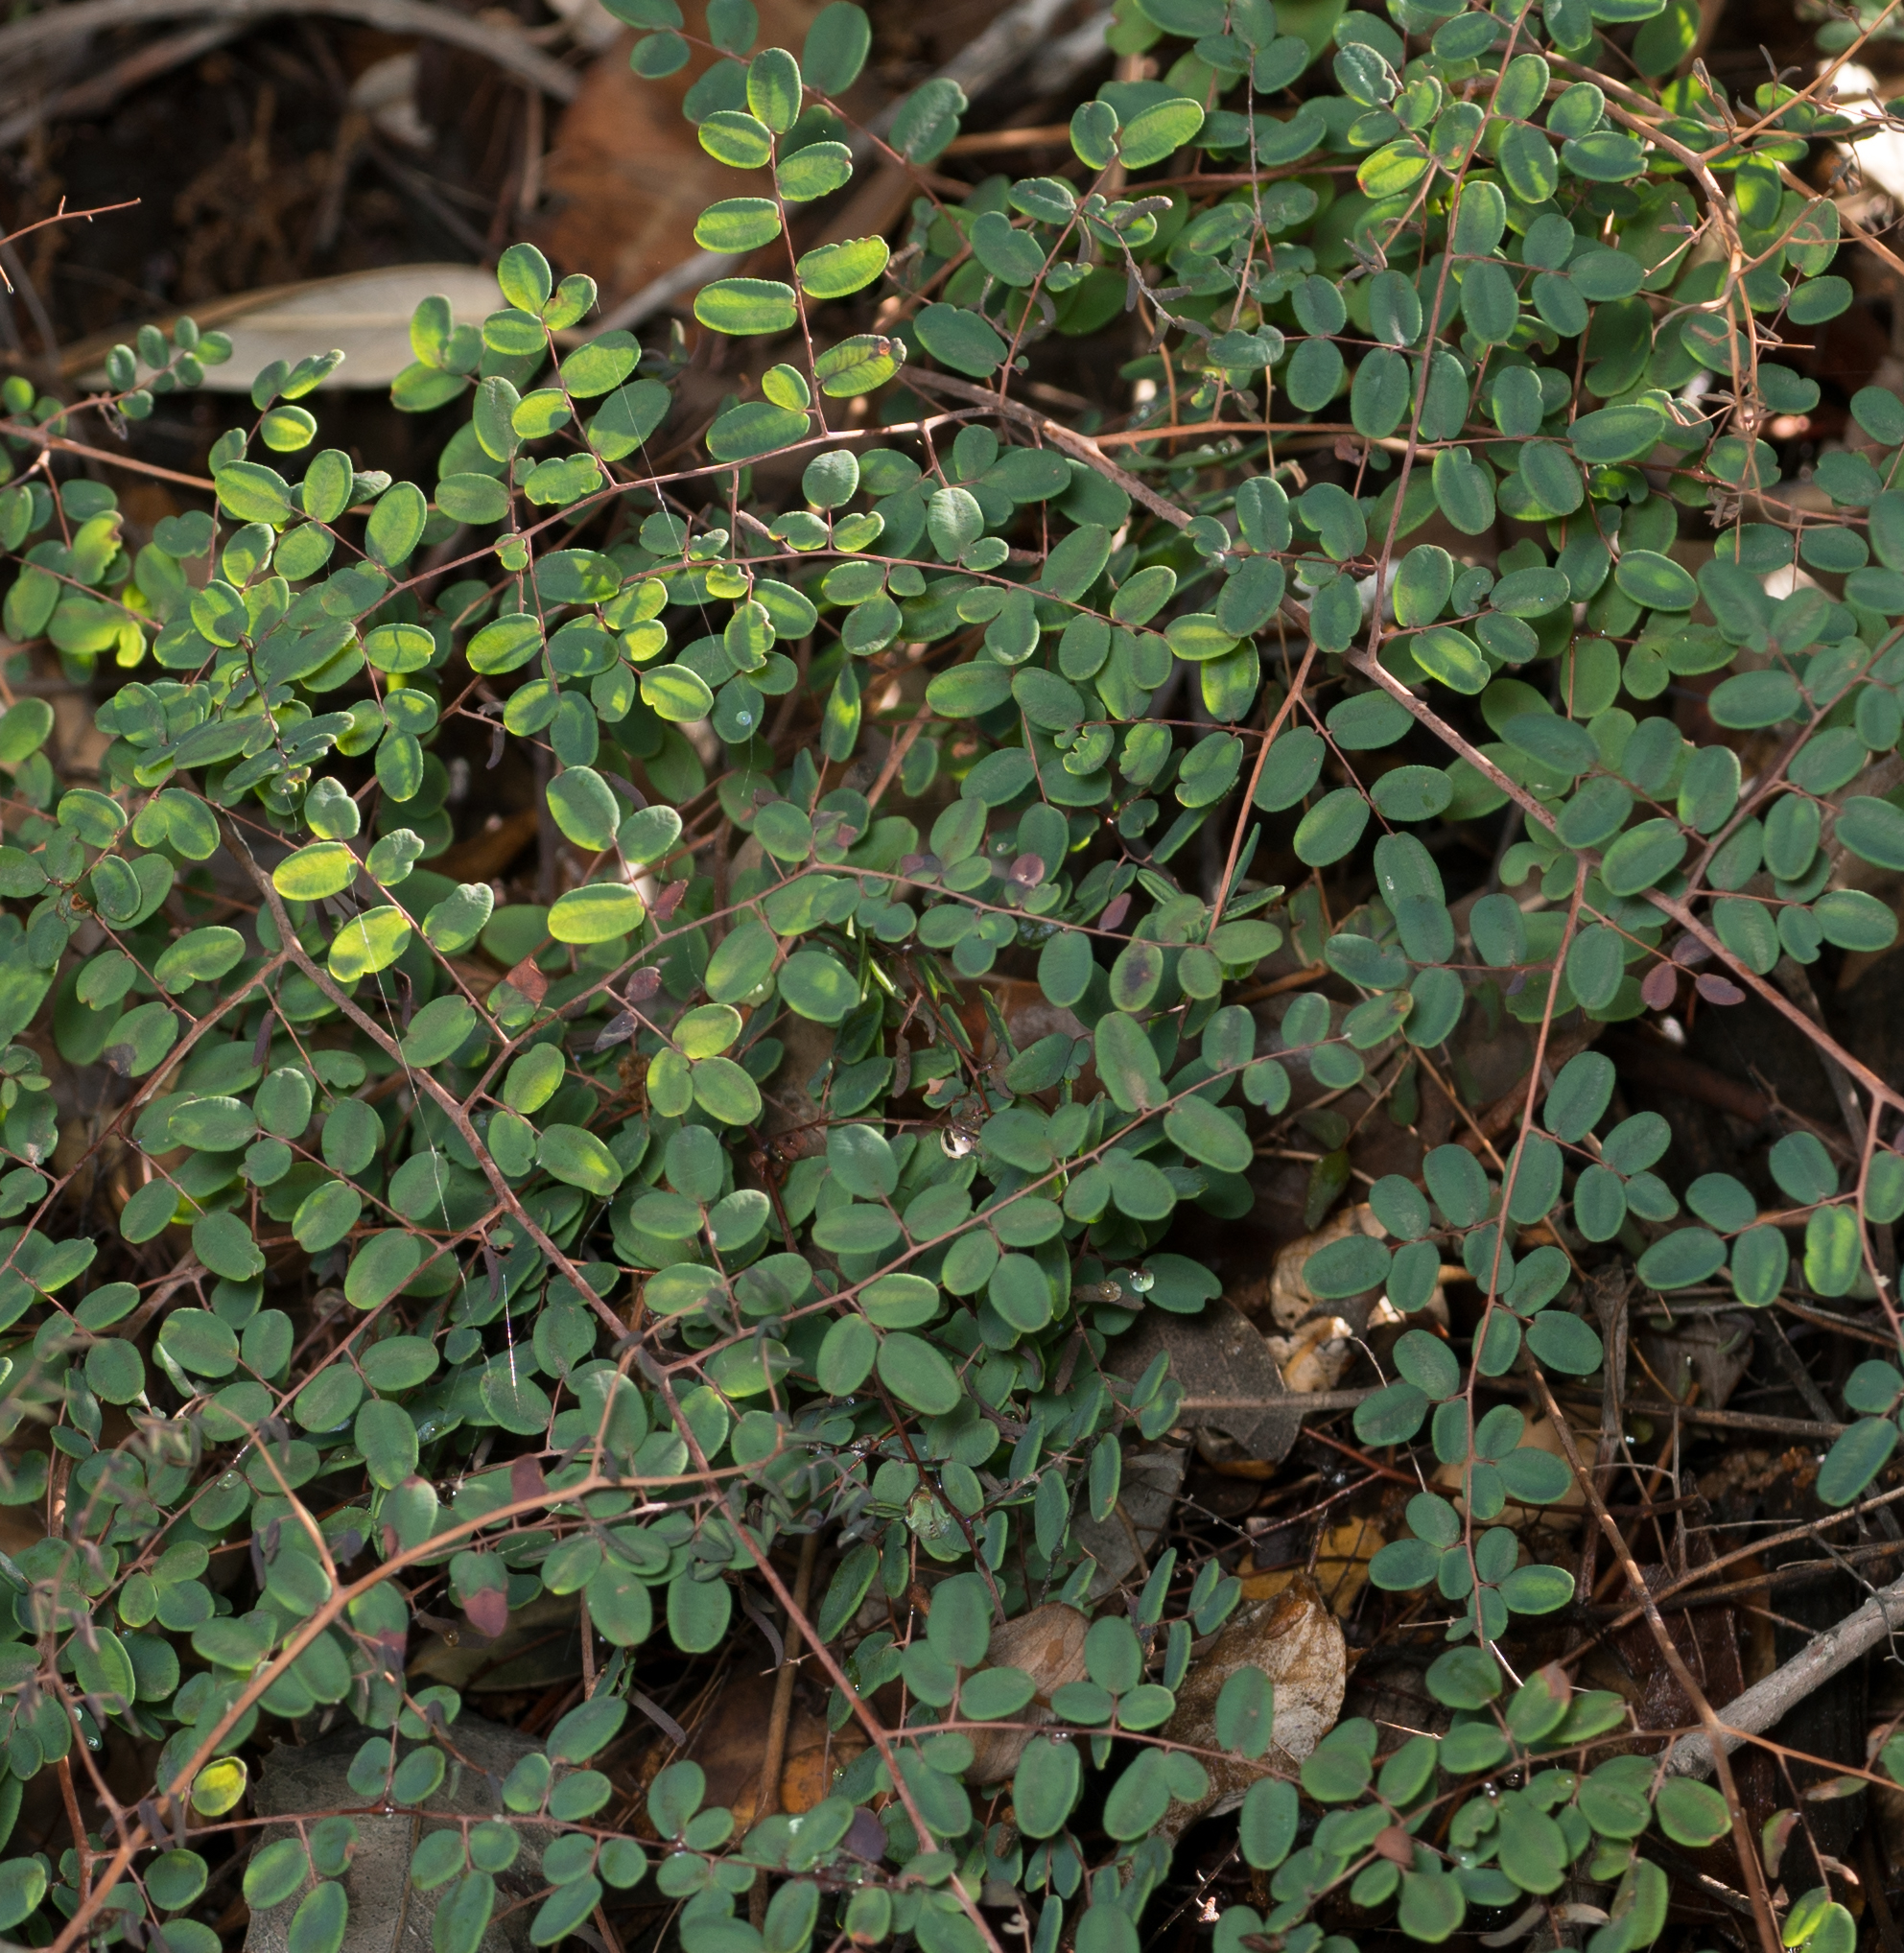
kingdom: Plantae
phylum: Tracheophyta
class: Polypodiopsida
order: Polypodiales
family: Pteridaceae
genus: Pellaea
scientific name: Pellaea andromedifolia
